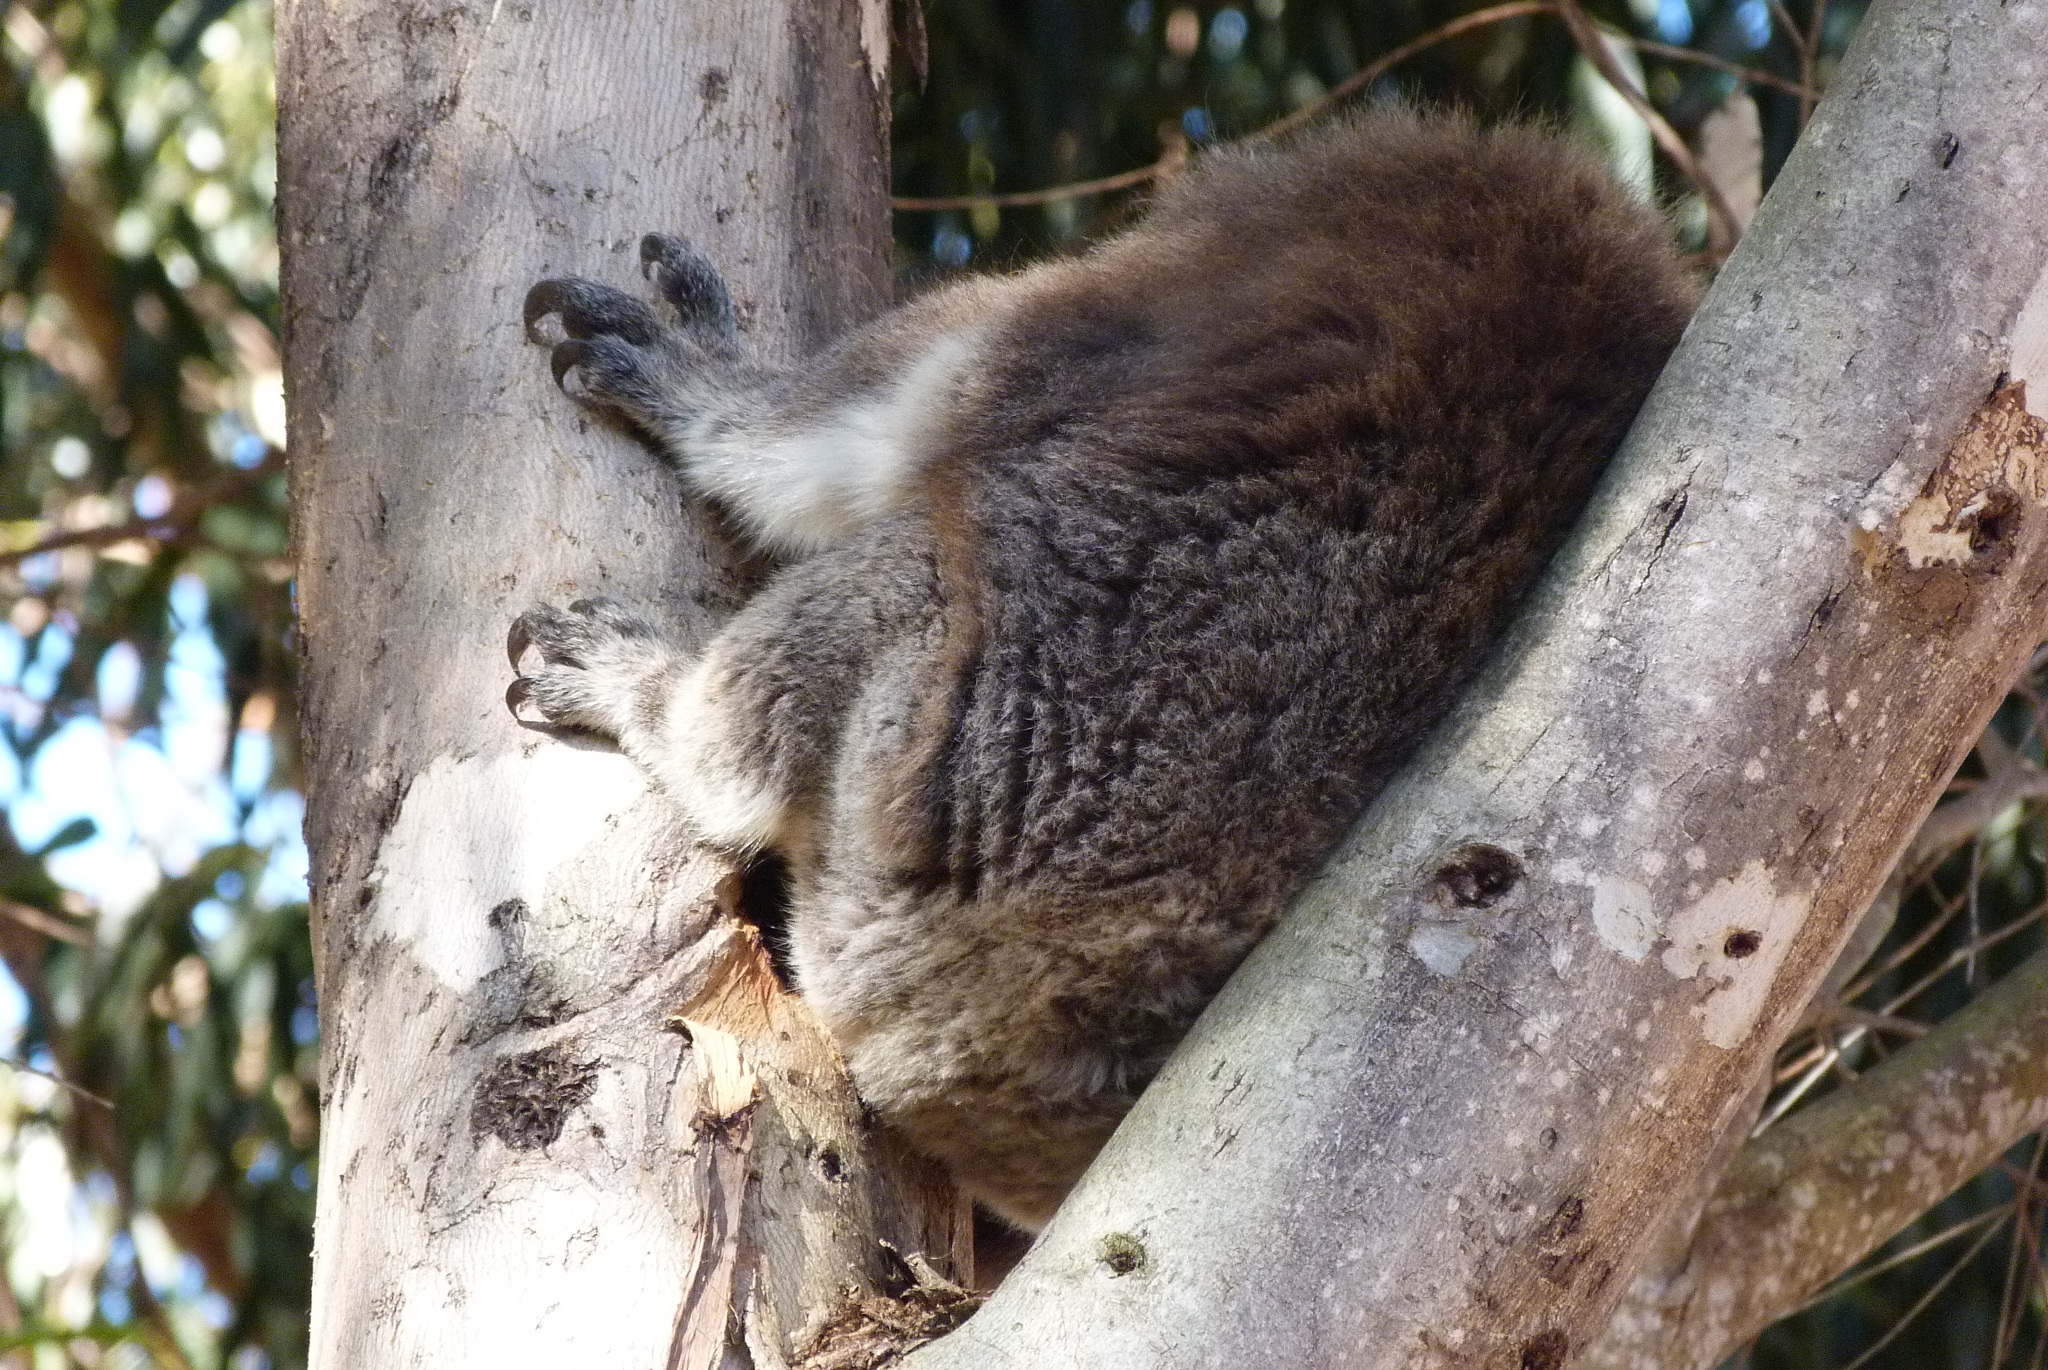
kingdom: Animalia
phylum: Chordata
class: Mammalia
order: Diprotodontia
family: Phascolarctidae
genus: Phascolarctos
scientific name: Phascolarctos cinereus
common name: Koala
